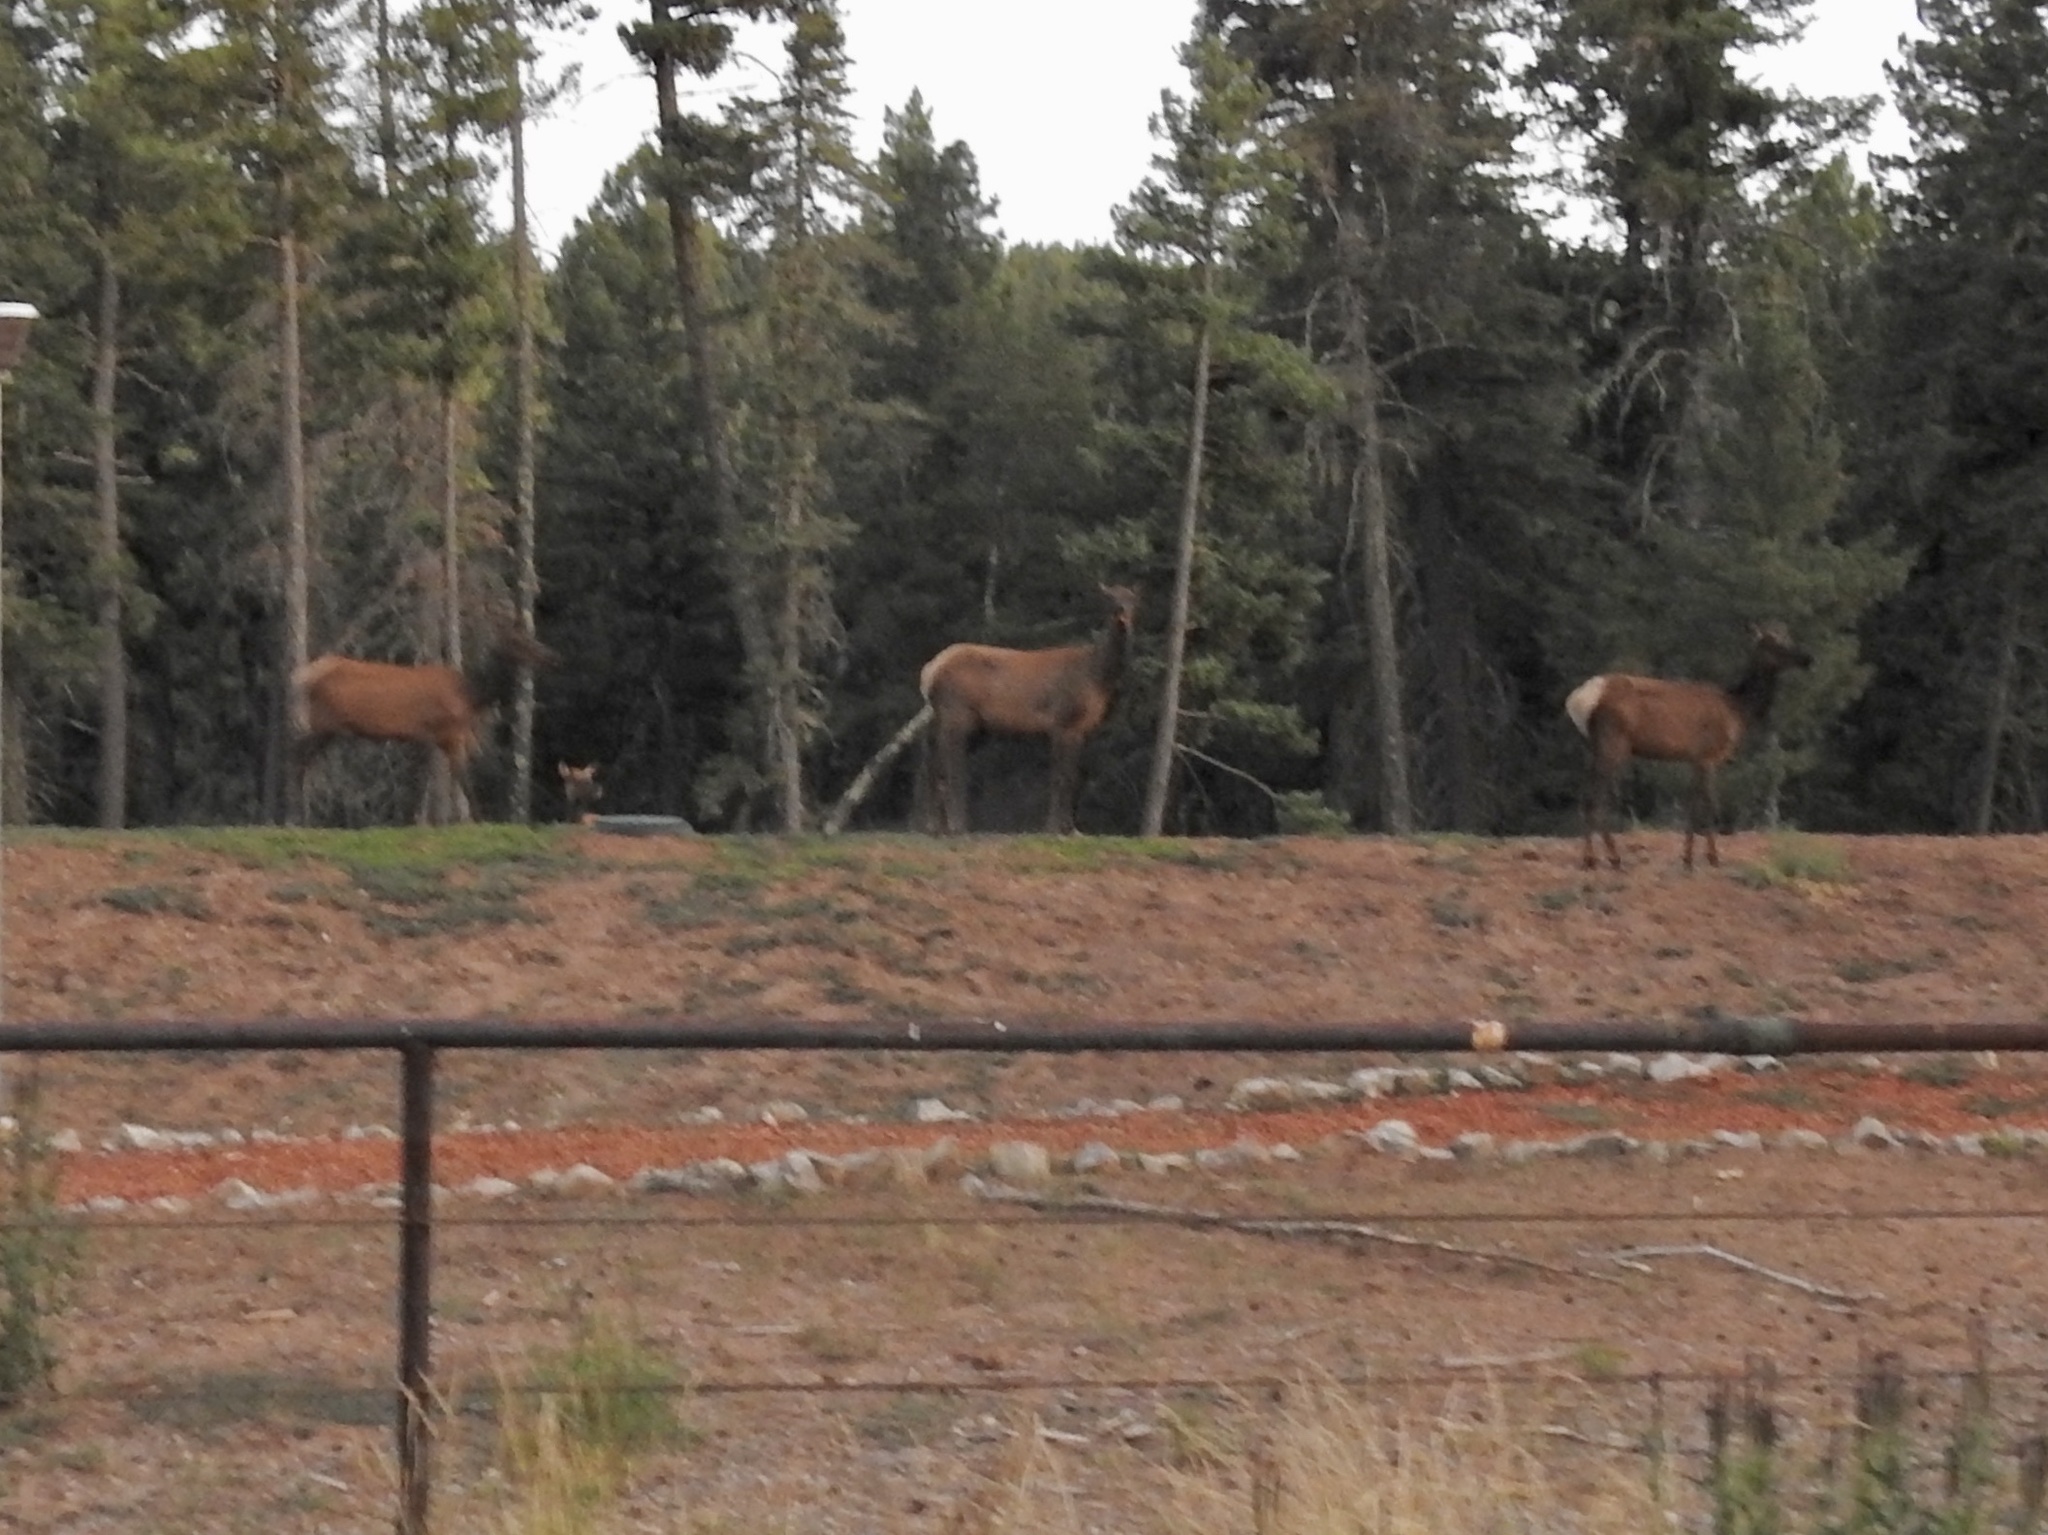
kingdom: Animalia
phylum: Chordata
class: Mammalia
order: Artiodactyla
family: Cervidae
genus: Cervus
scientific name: Cervus elaphus
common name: Red deer
